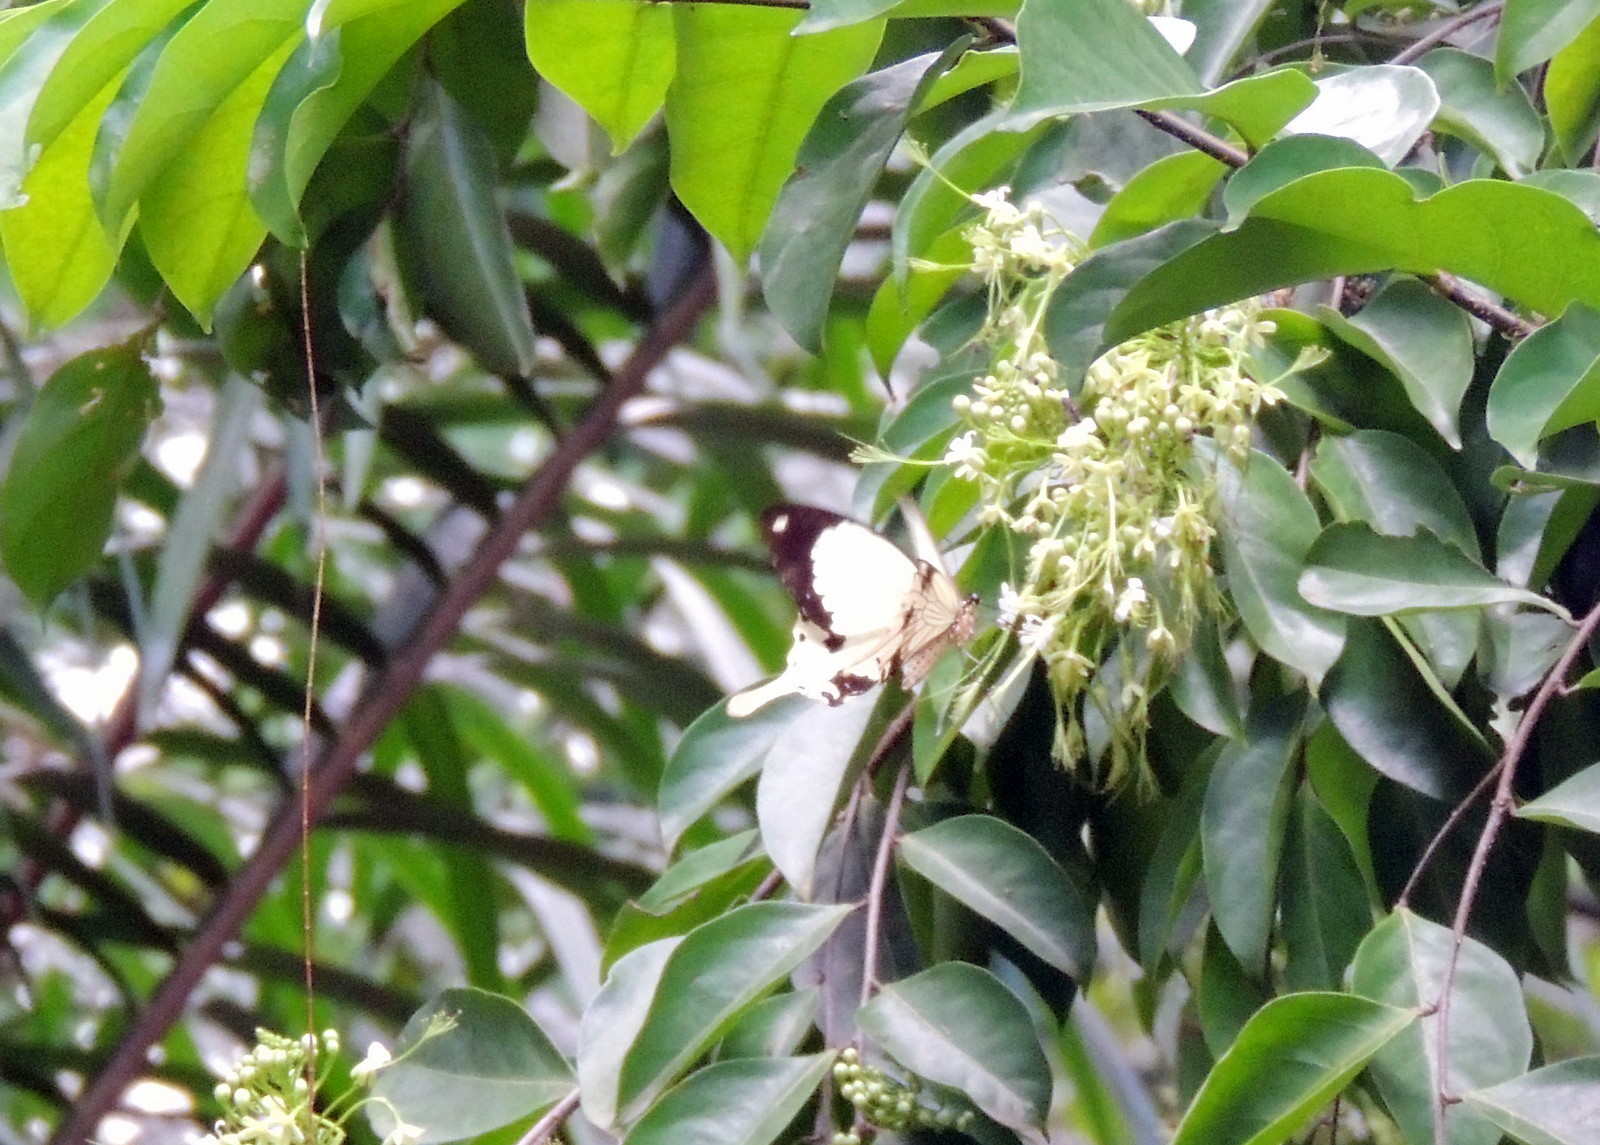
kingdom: Animalia
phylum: Arthropoda
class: Insecta
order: Lepidoptera
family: Papilionidae
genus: Papilio
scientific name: Papilio dardanus
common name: Flying handkerchief
